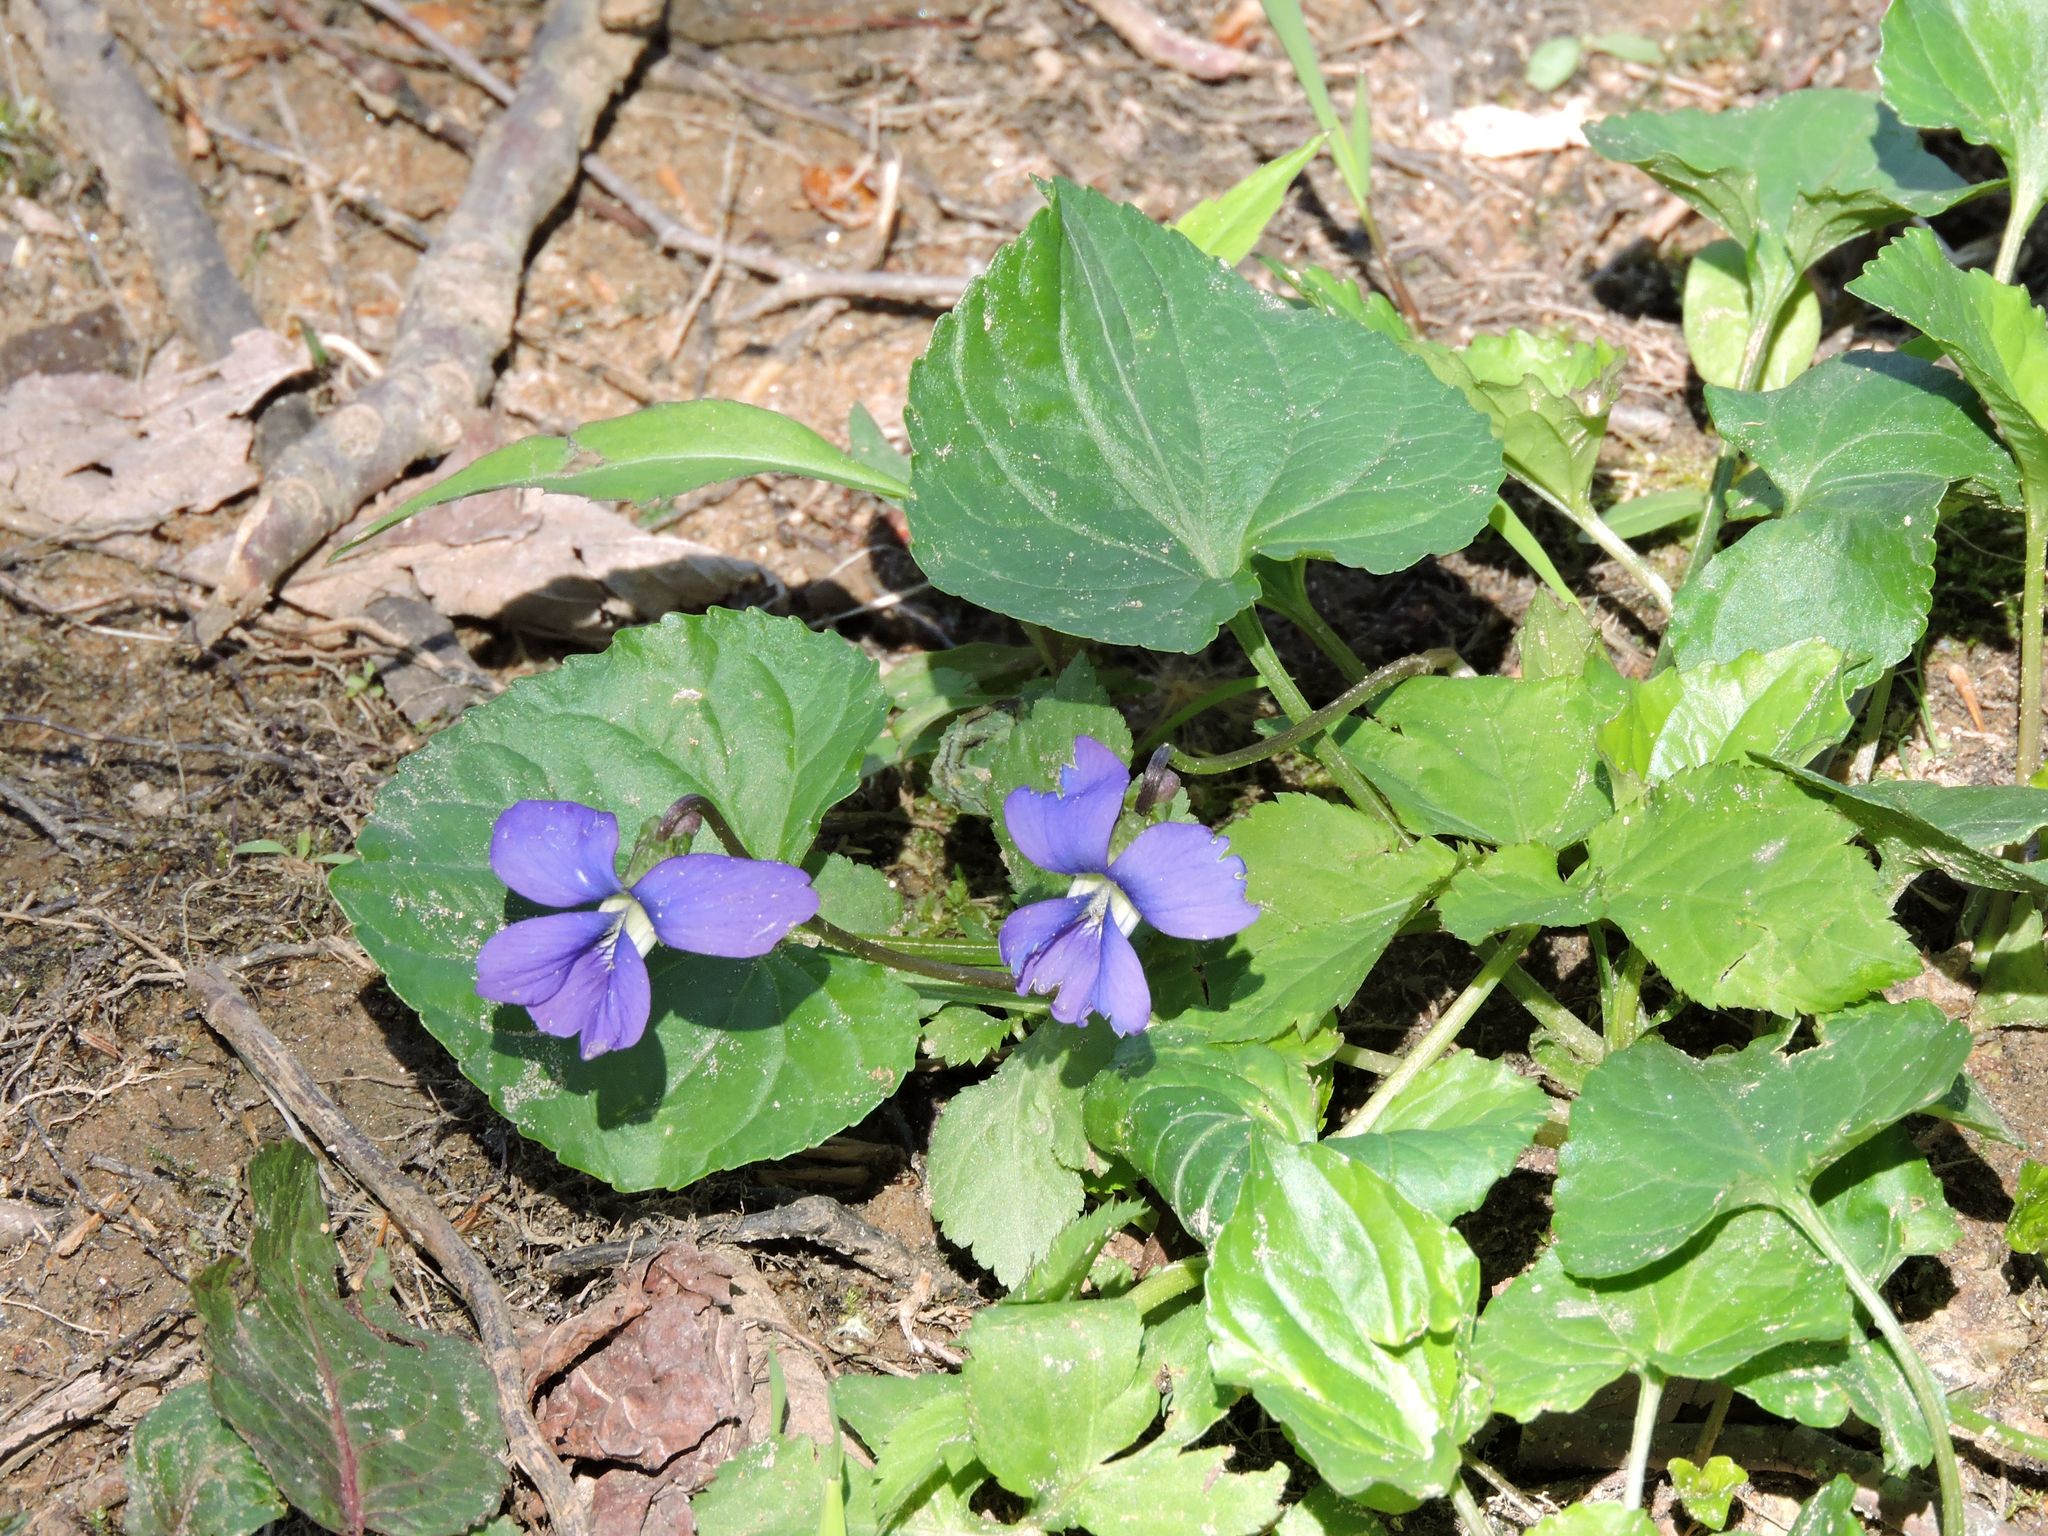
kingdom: Plantae
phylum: Tracheophyta
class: Magnoliopsida
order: Malpighiales
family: Violaceae
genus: Viola
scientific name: Viola sororia
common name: Dooryard violet
